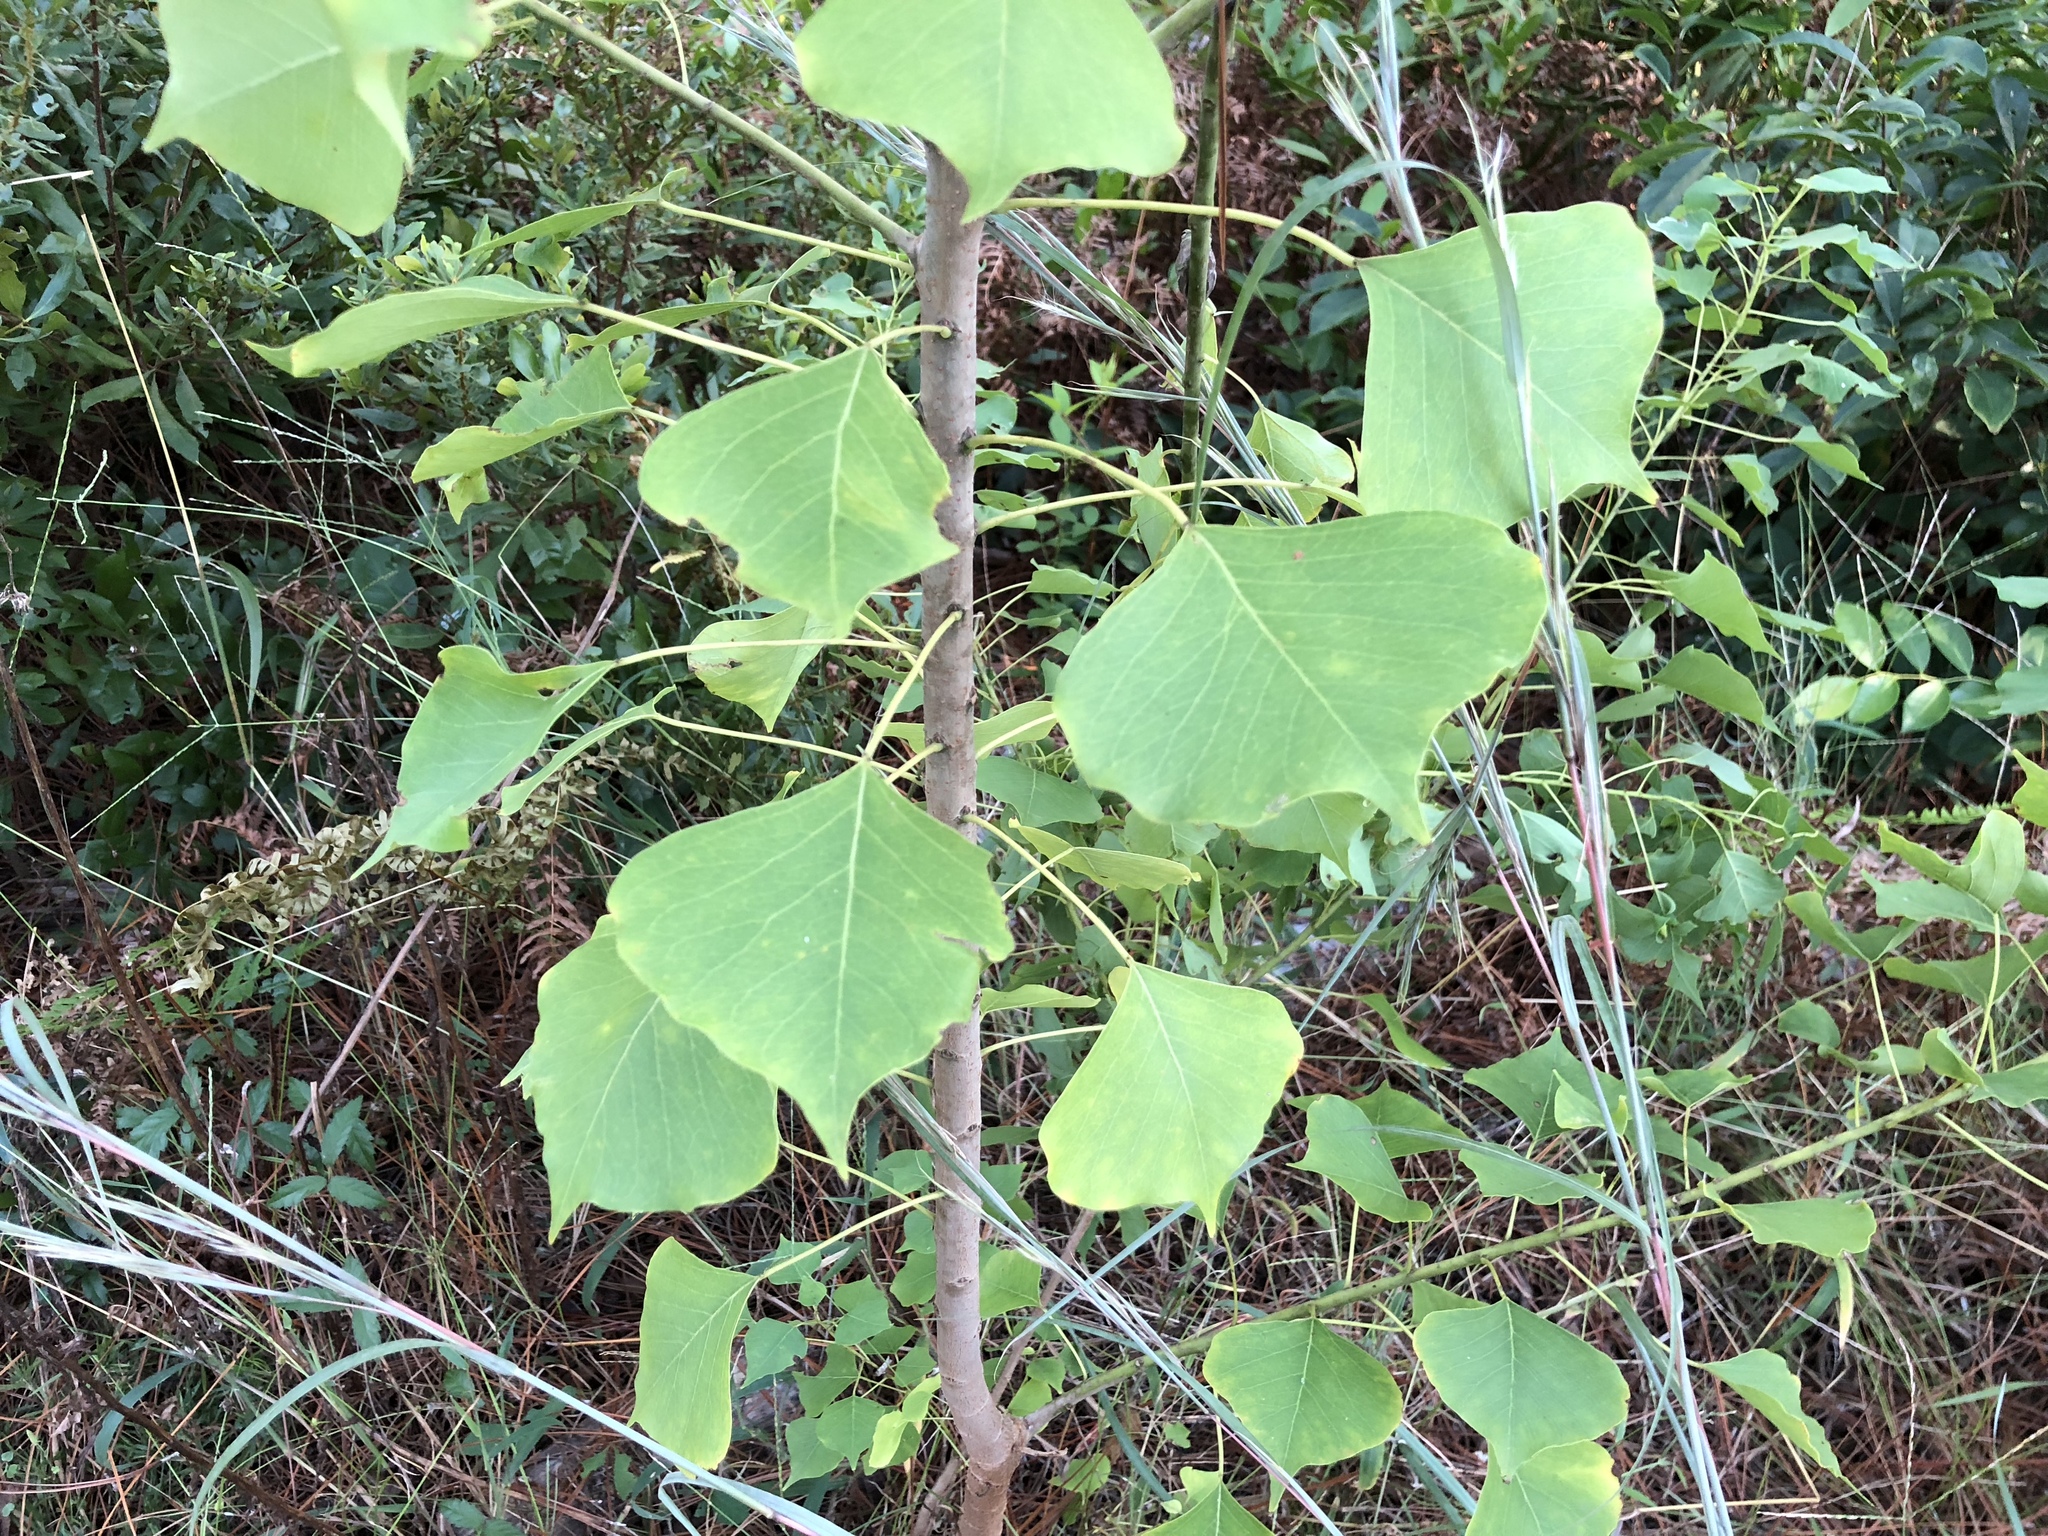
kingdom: Plantae
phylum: Tracheophyta
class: Magnoliopsida
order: Malpighiales
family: Euphorbiaceae
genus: Triadica
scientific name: Triadica sebifera
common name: Chinese tallow
